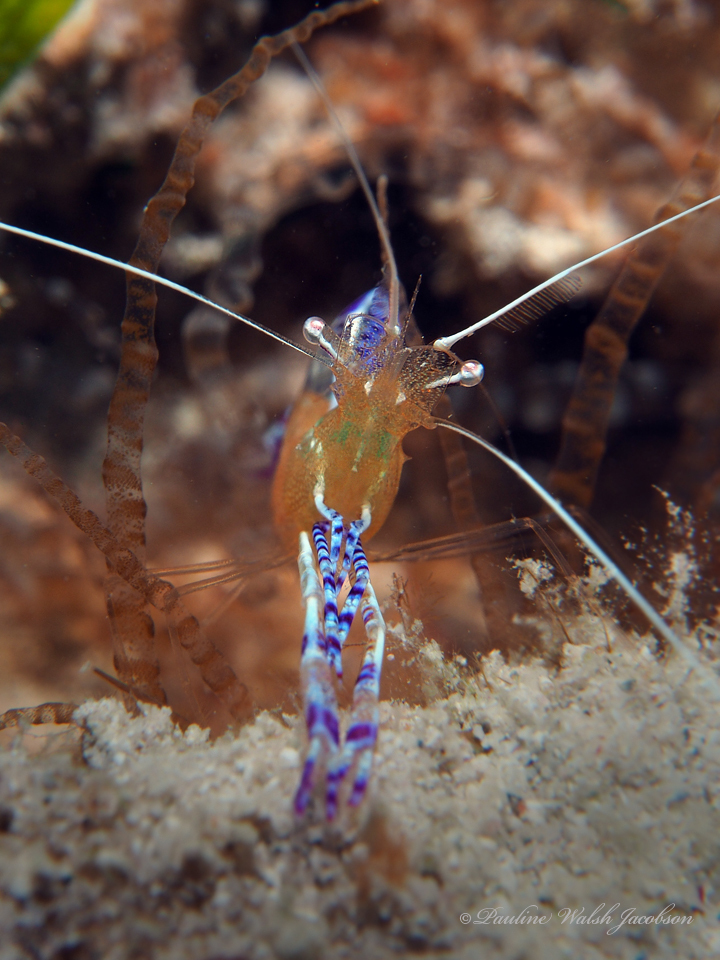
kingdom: Animalia
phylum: Arthropoda
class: Malacostraca
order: Decapoda
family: Palaemonidae
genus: Ancylomenes
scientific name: Ancylomenes pedersoni
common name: Pederson's cleaning shrimp
